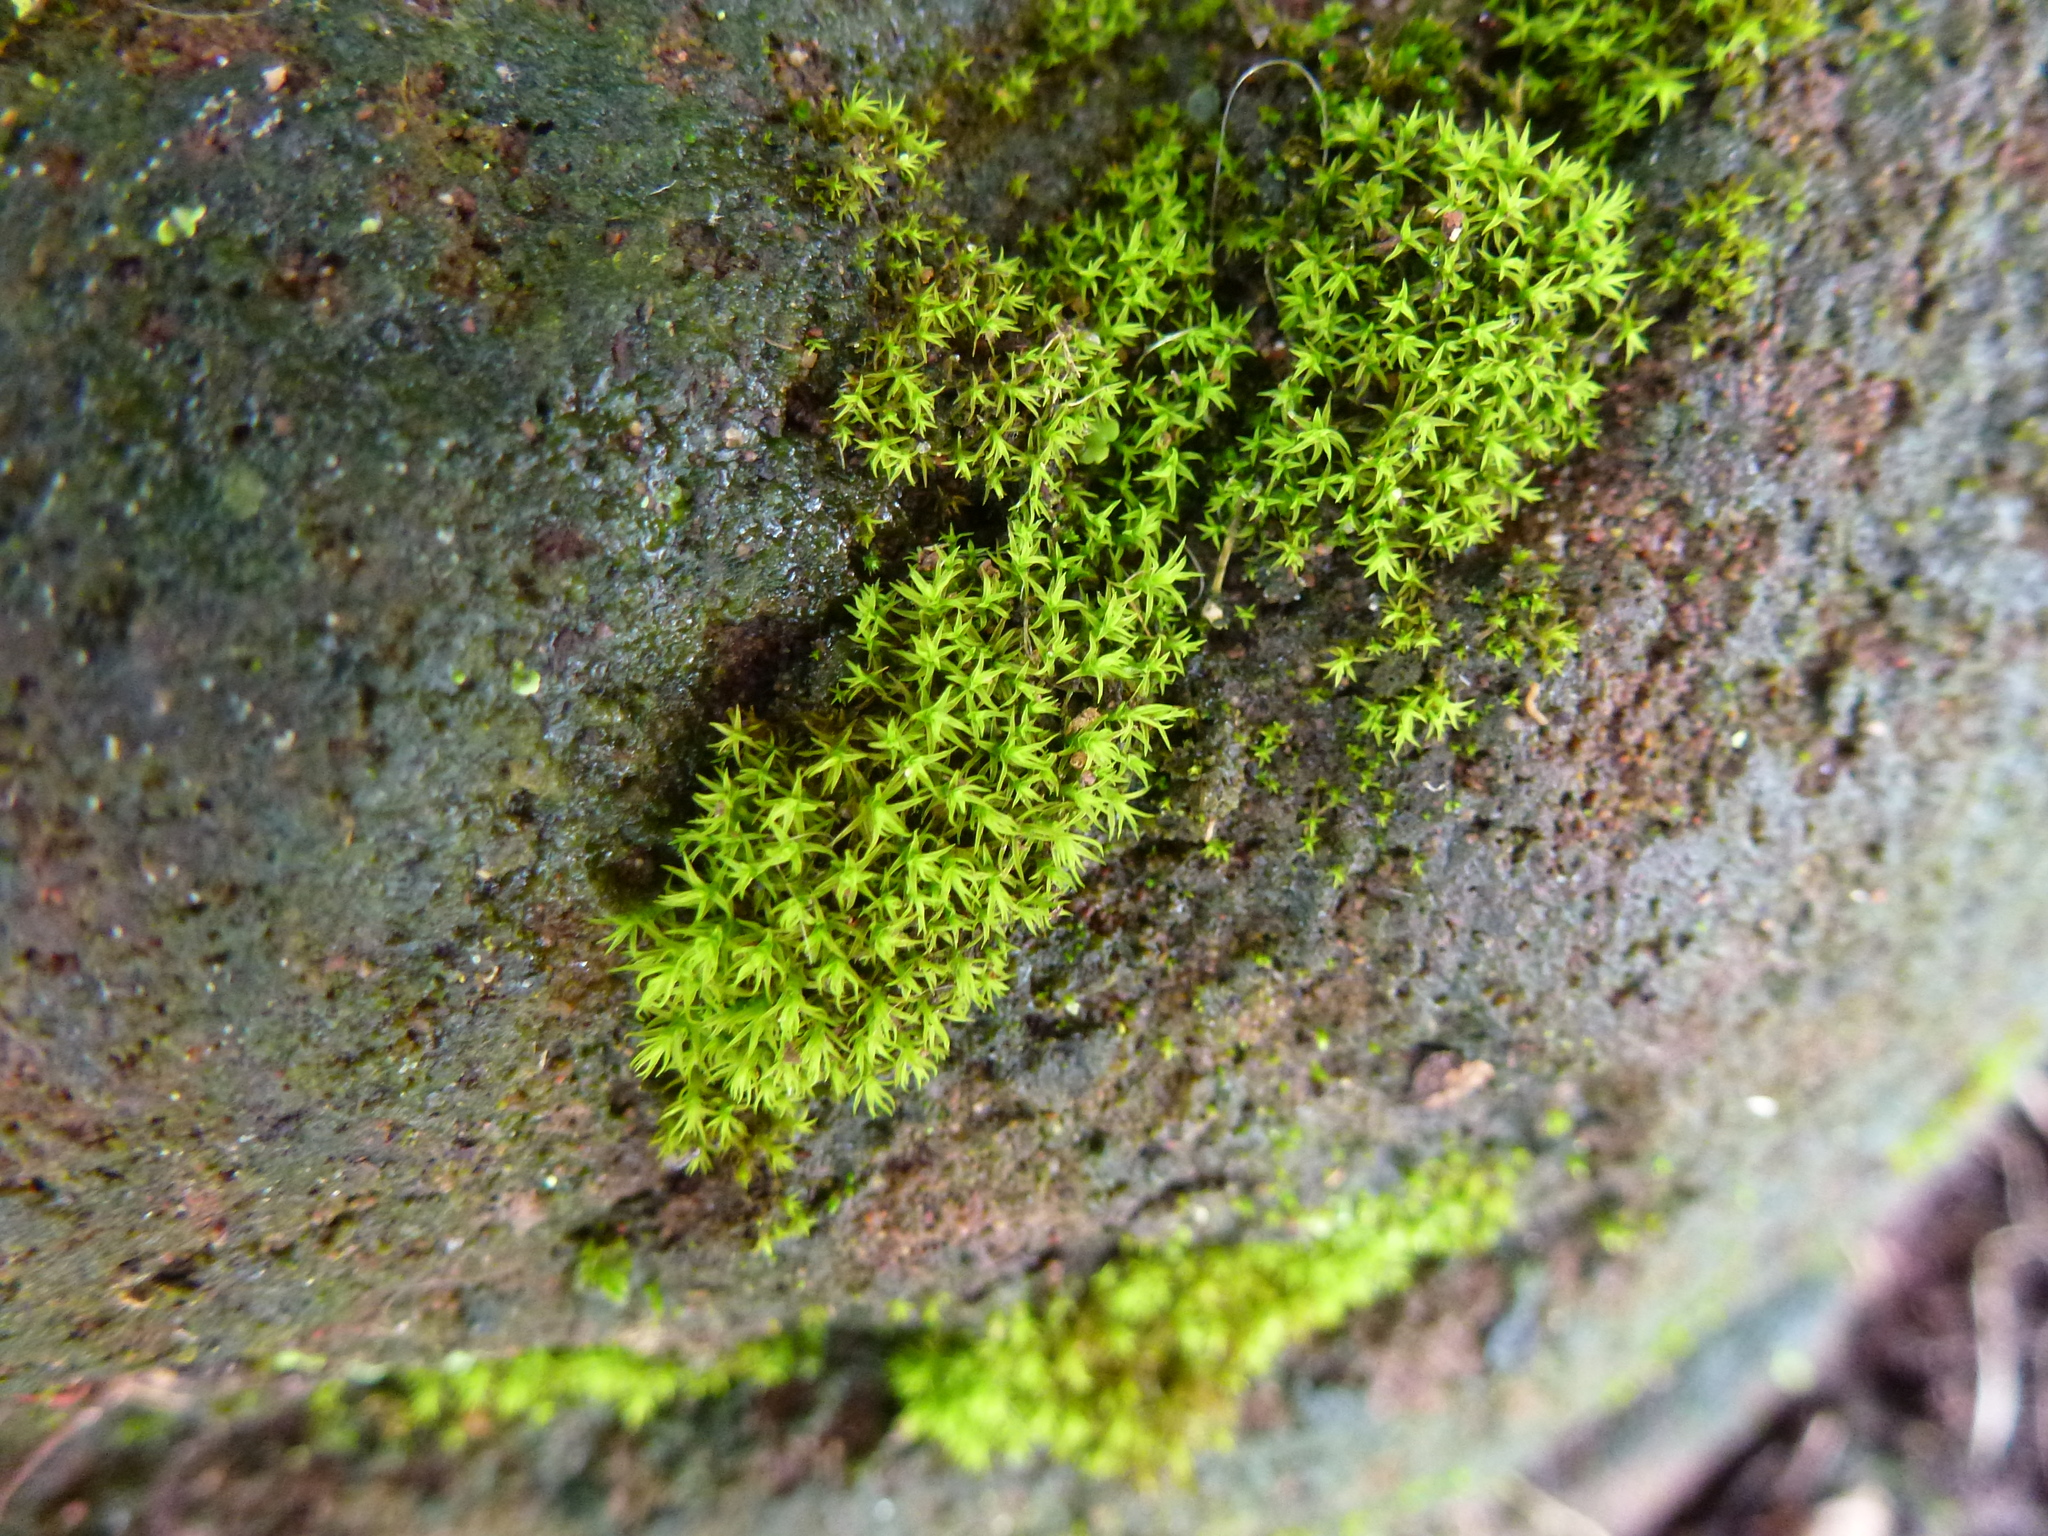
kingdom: Plantae
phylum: Bryophyta
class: Bryopsida
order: Pottiales
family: Pottiaceae
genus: Vinealobryum
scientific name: Vinealobryum vineale
